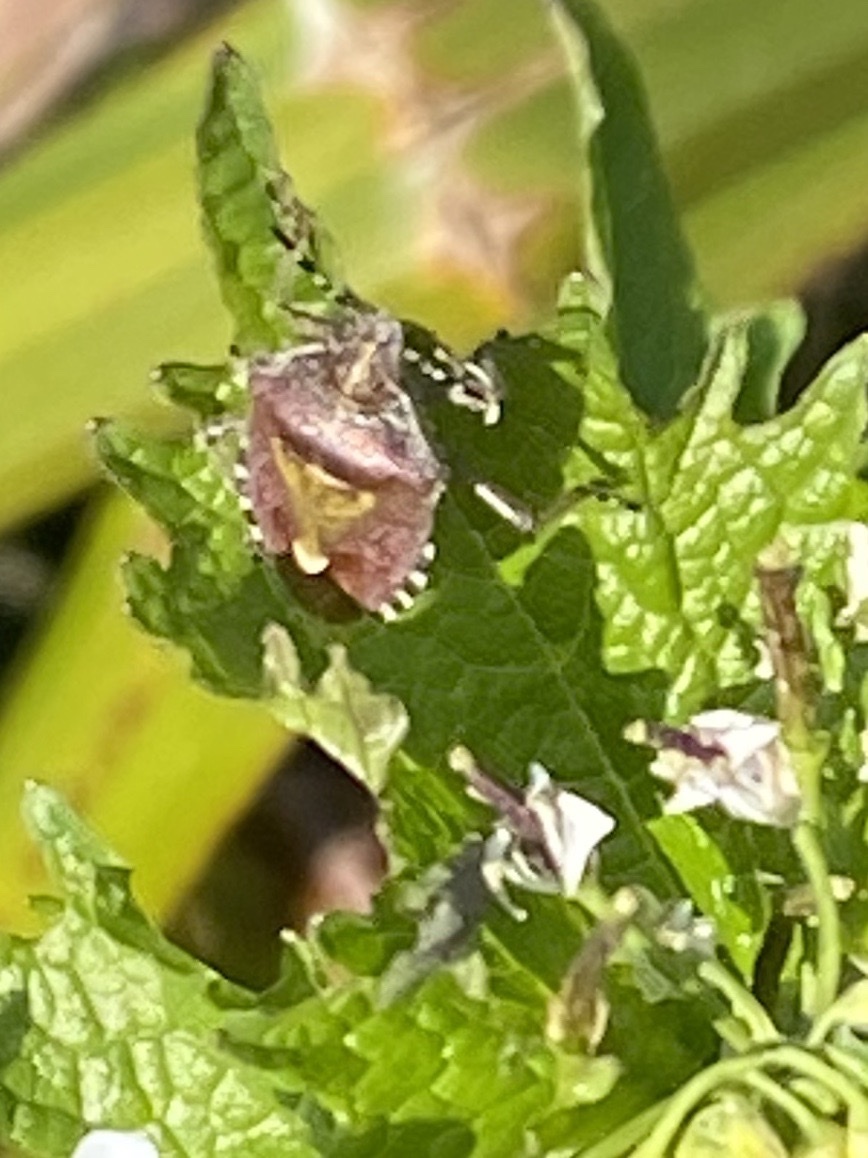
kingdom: Animalia
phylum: Arthropoda
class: Insecta
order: Hemiptera
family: Pentatomidae
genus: Dolycoris
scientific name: Dolycoris baccarum
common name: Sloe bug
